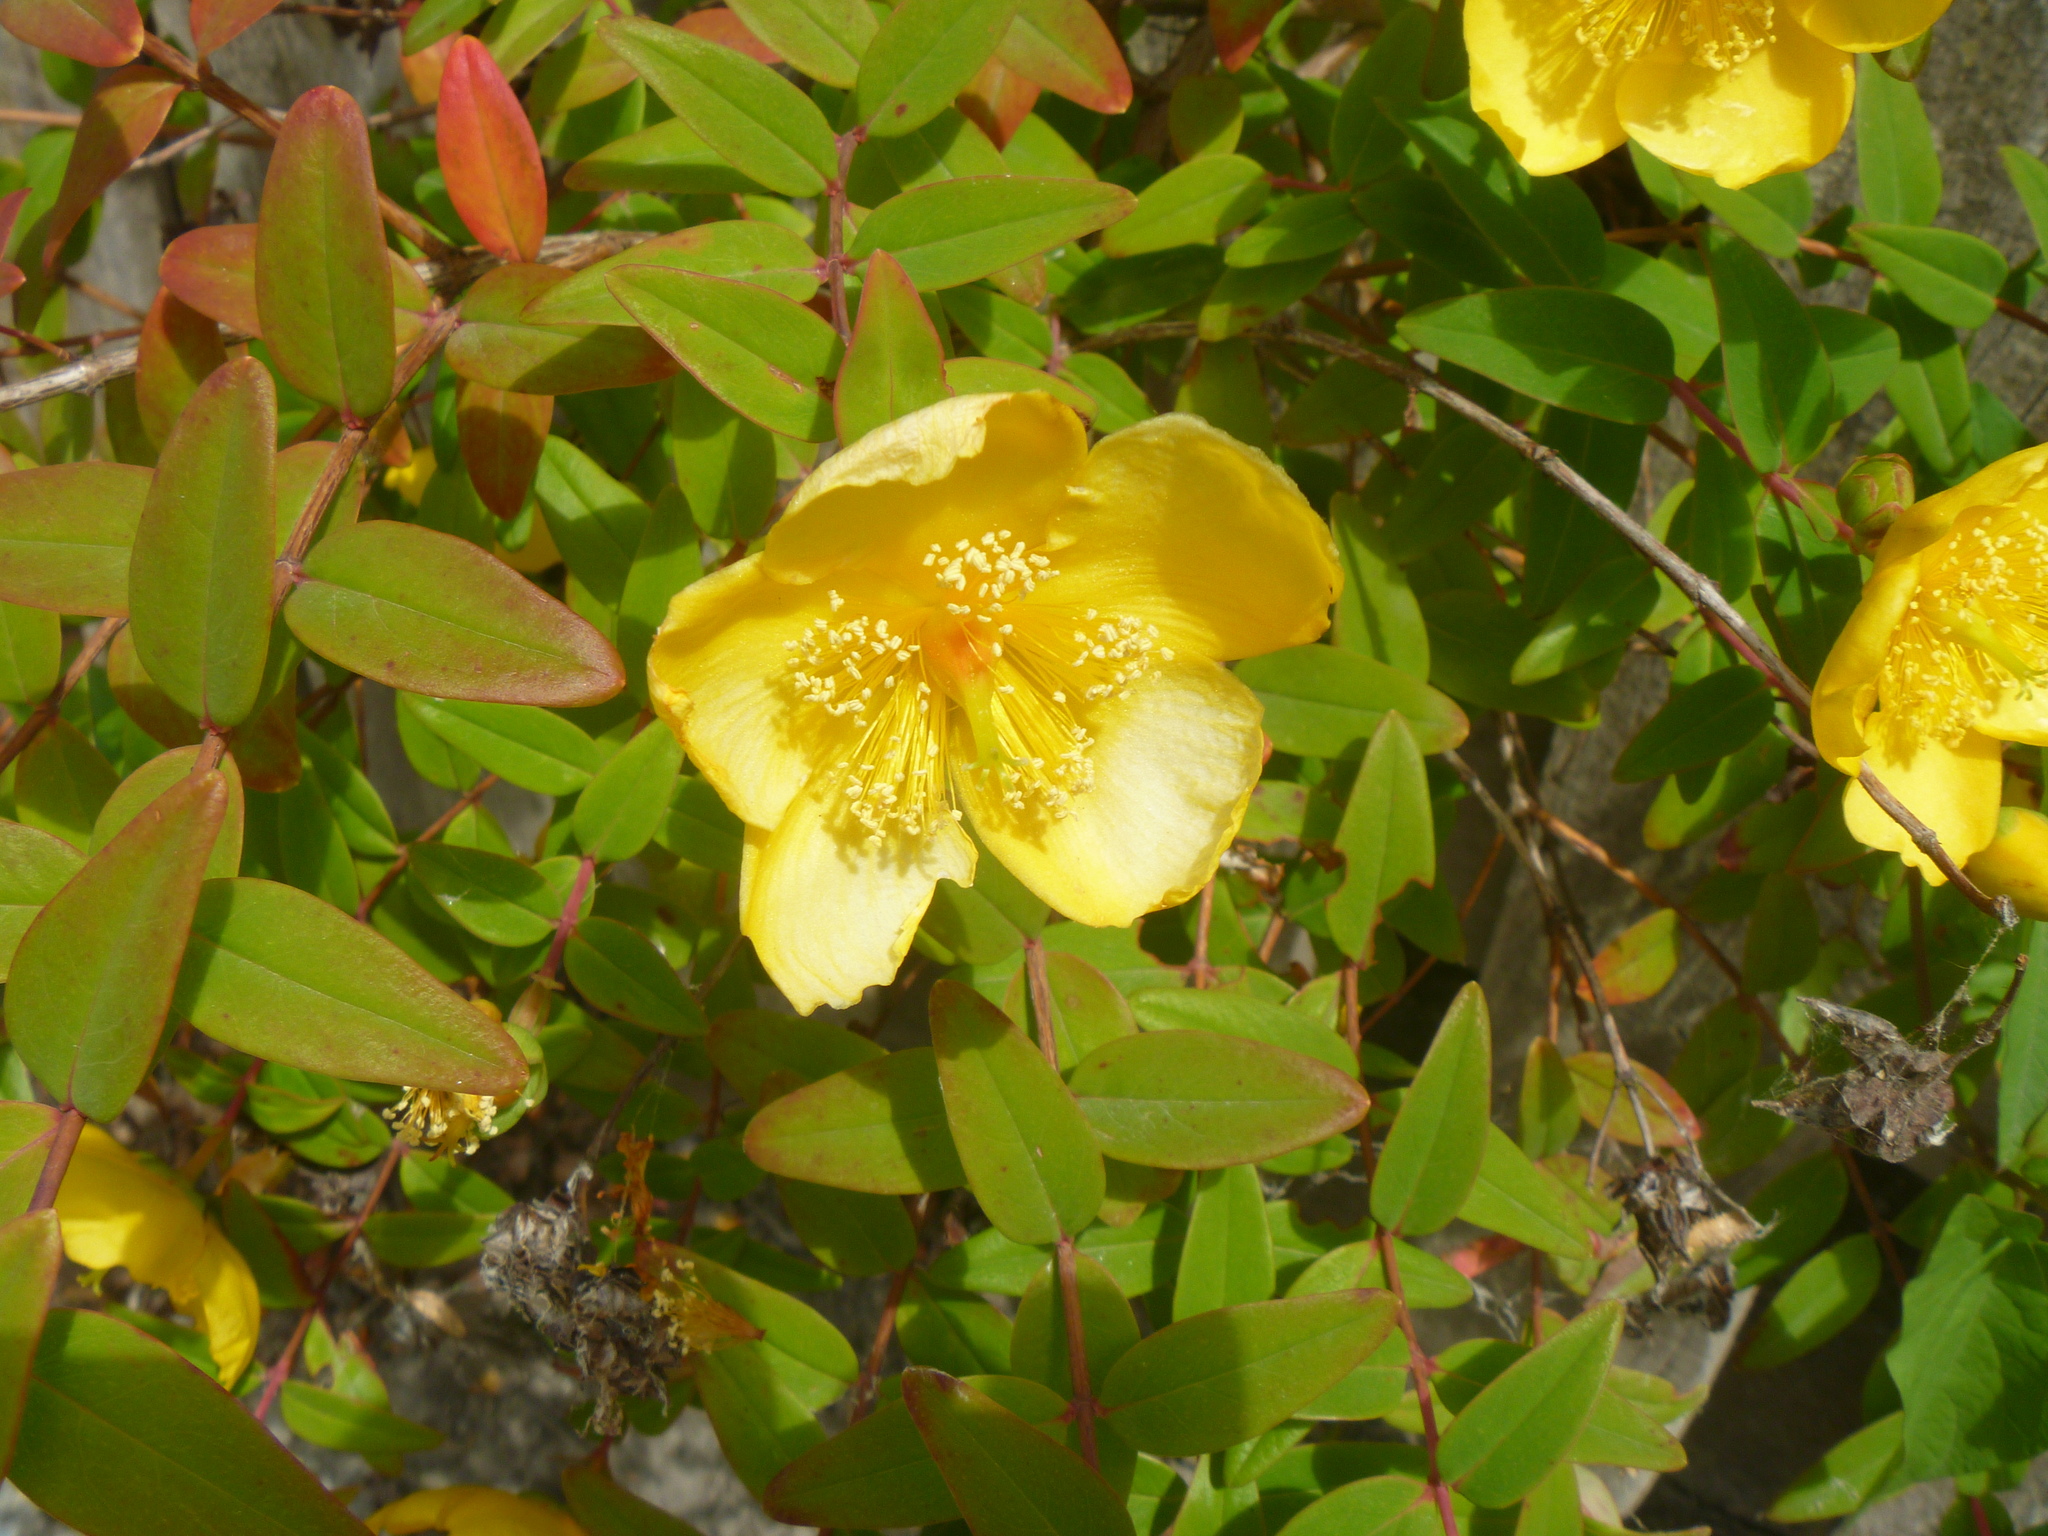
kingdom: Plantae
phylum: Tracheophyta
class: Magnoliopsida
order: Malpighiales
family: Hypericaceae
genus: Hypericum
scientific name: Hypericum androsaemum
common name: Sweet-amber
